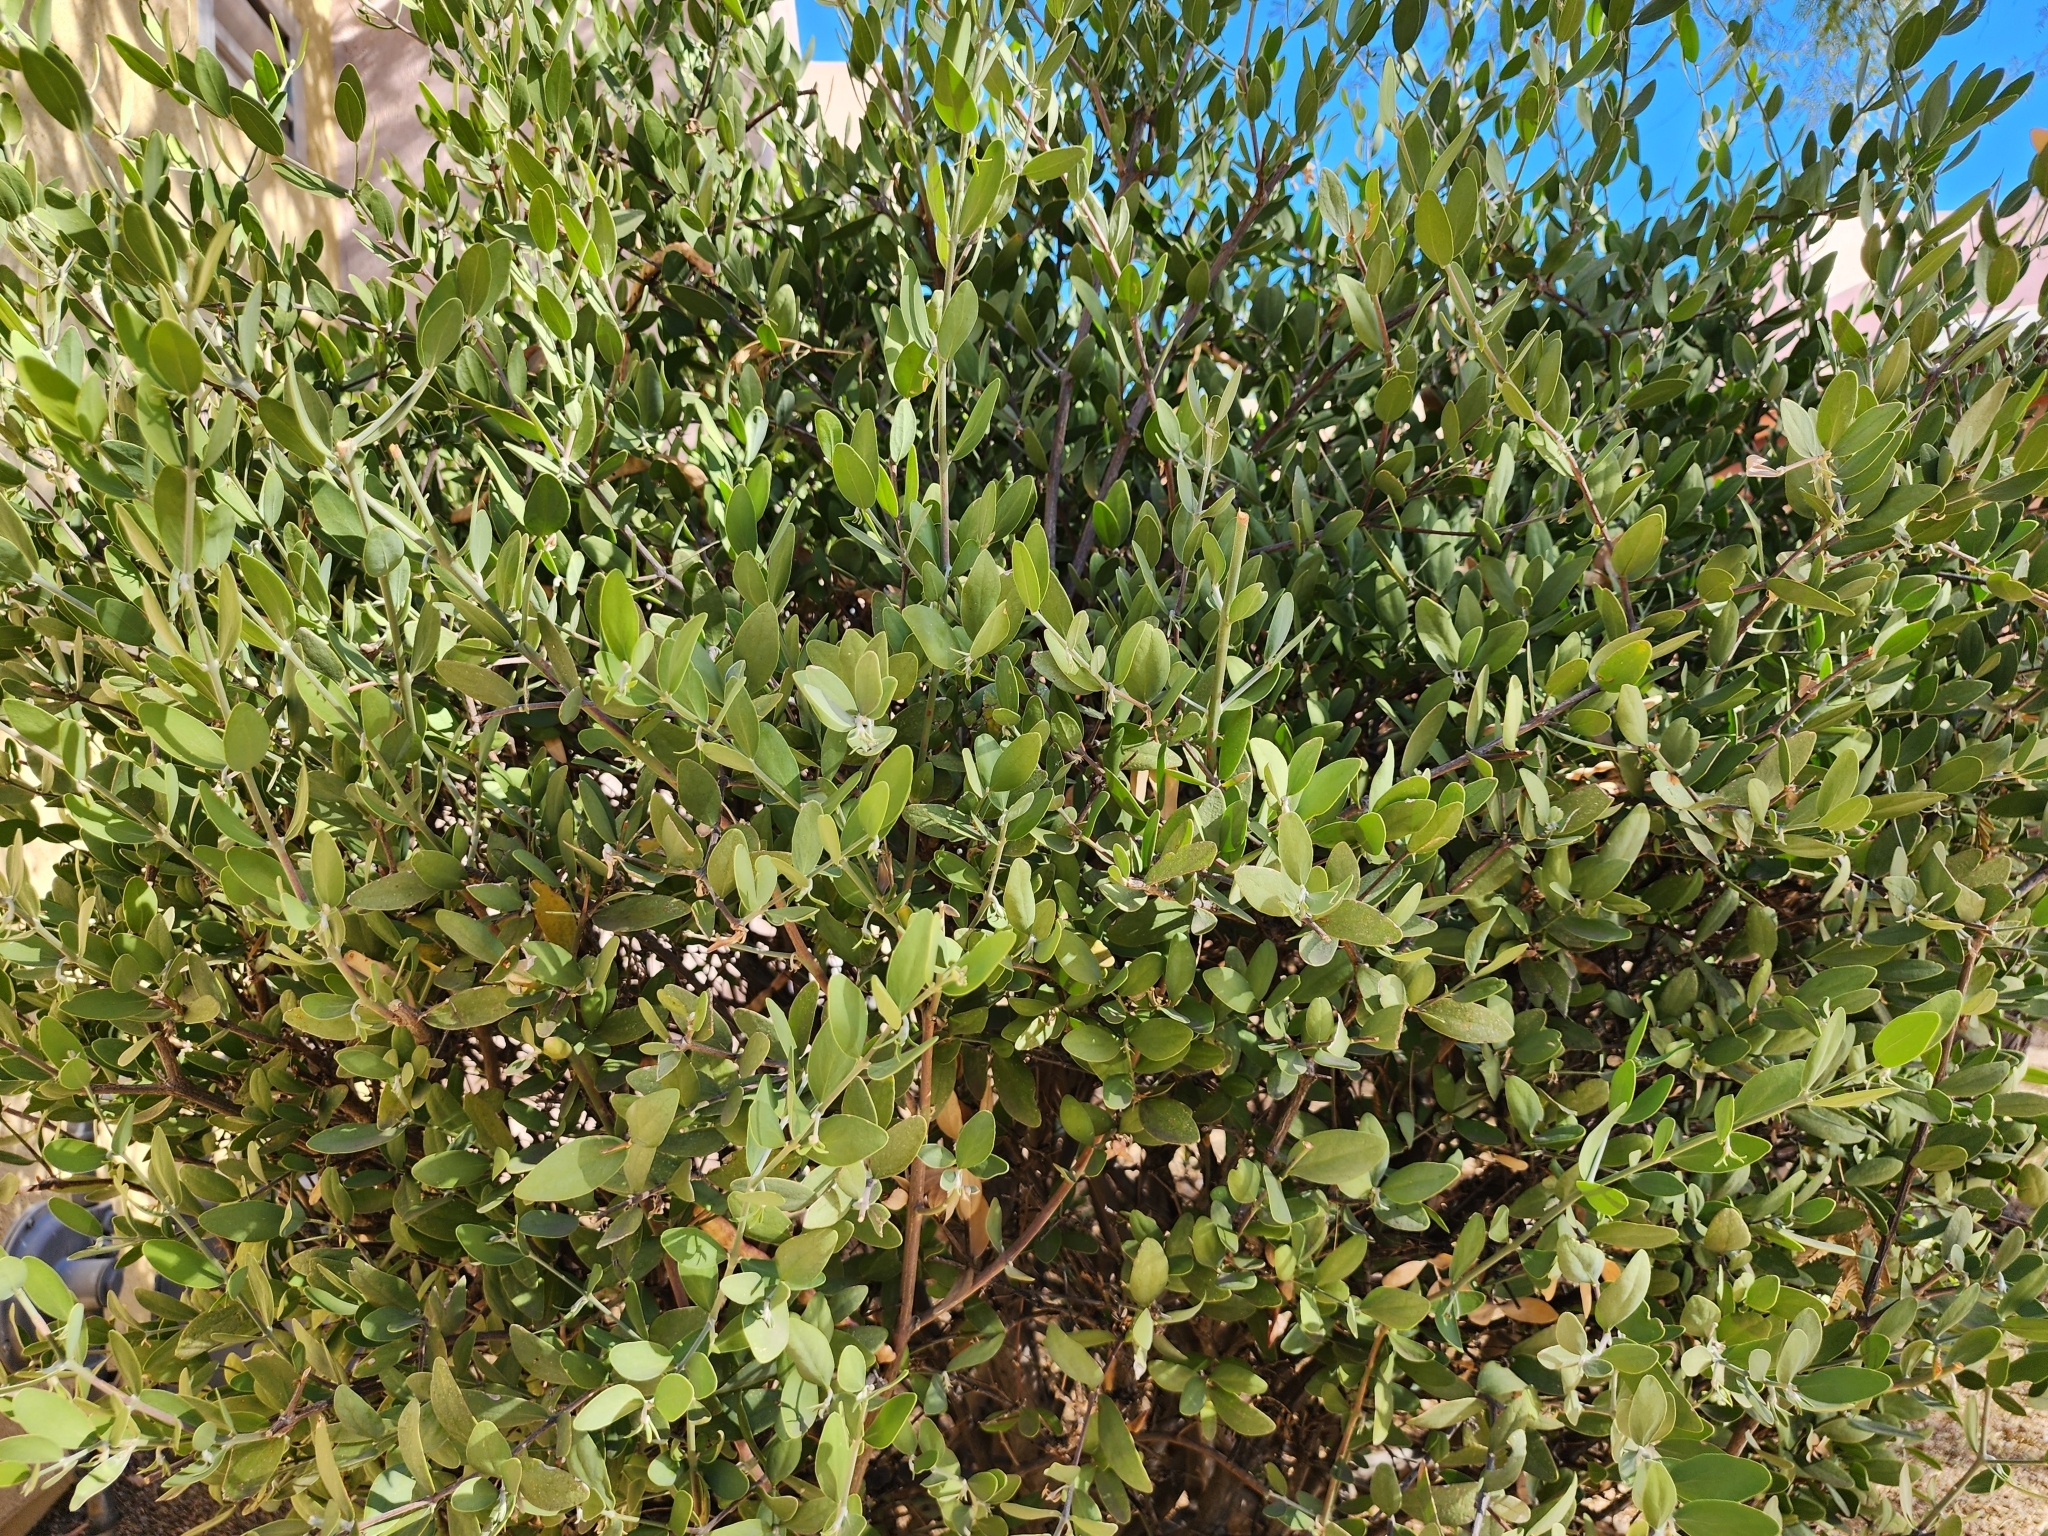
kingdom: Plantae
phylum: Tracheophyta
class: Magnoliopsida
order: Caryophyllales
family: Simmondsiaceae
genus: Simmondsia
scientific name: Simmondsia chinensis
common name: Jojoba
